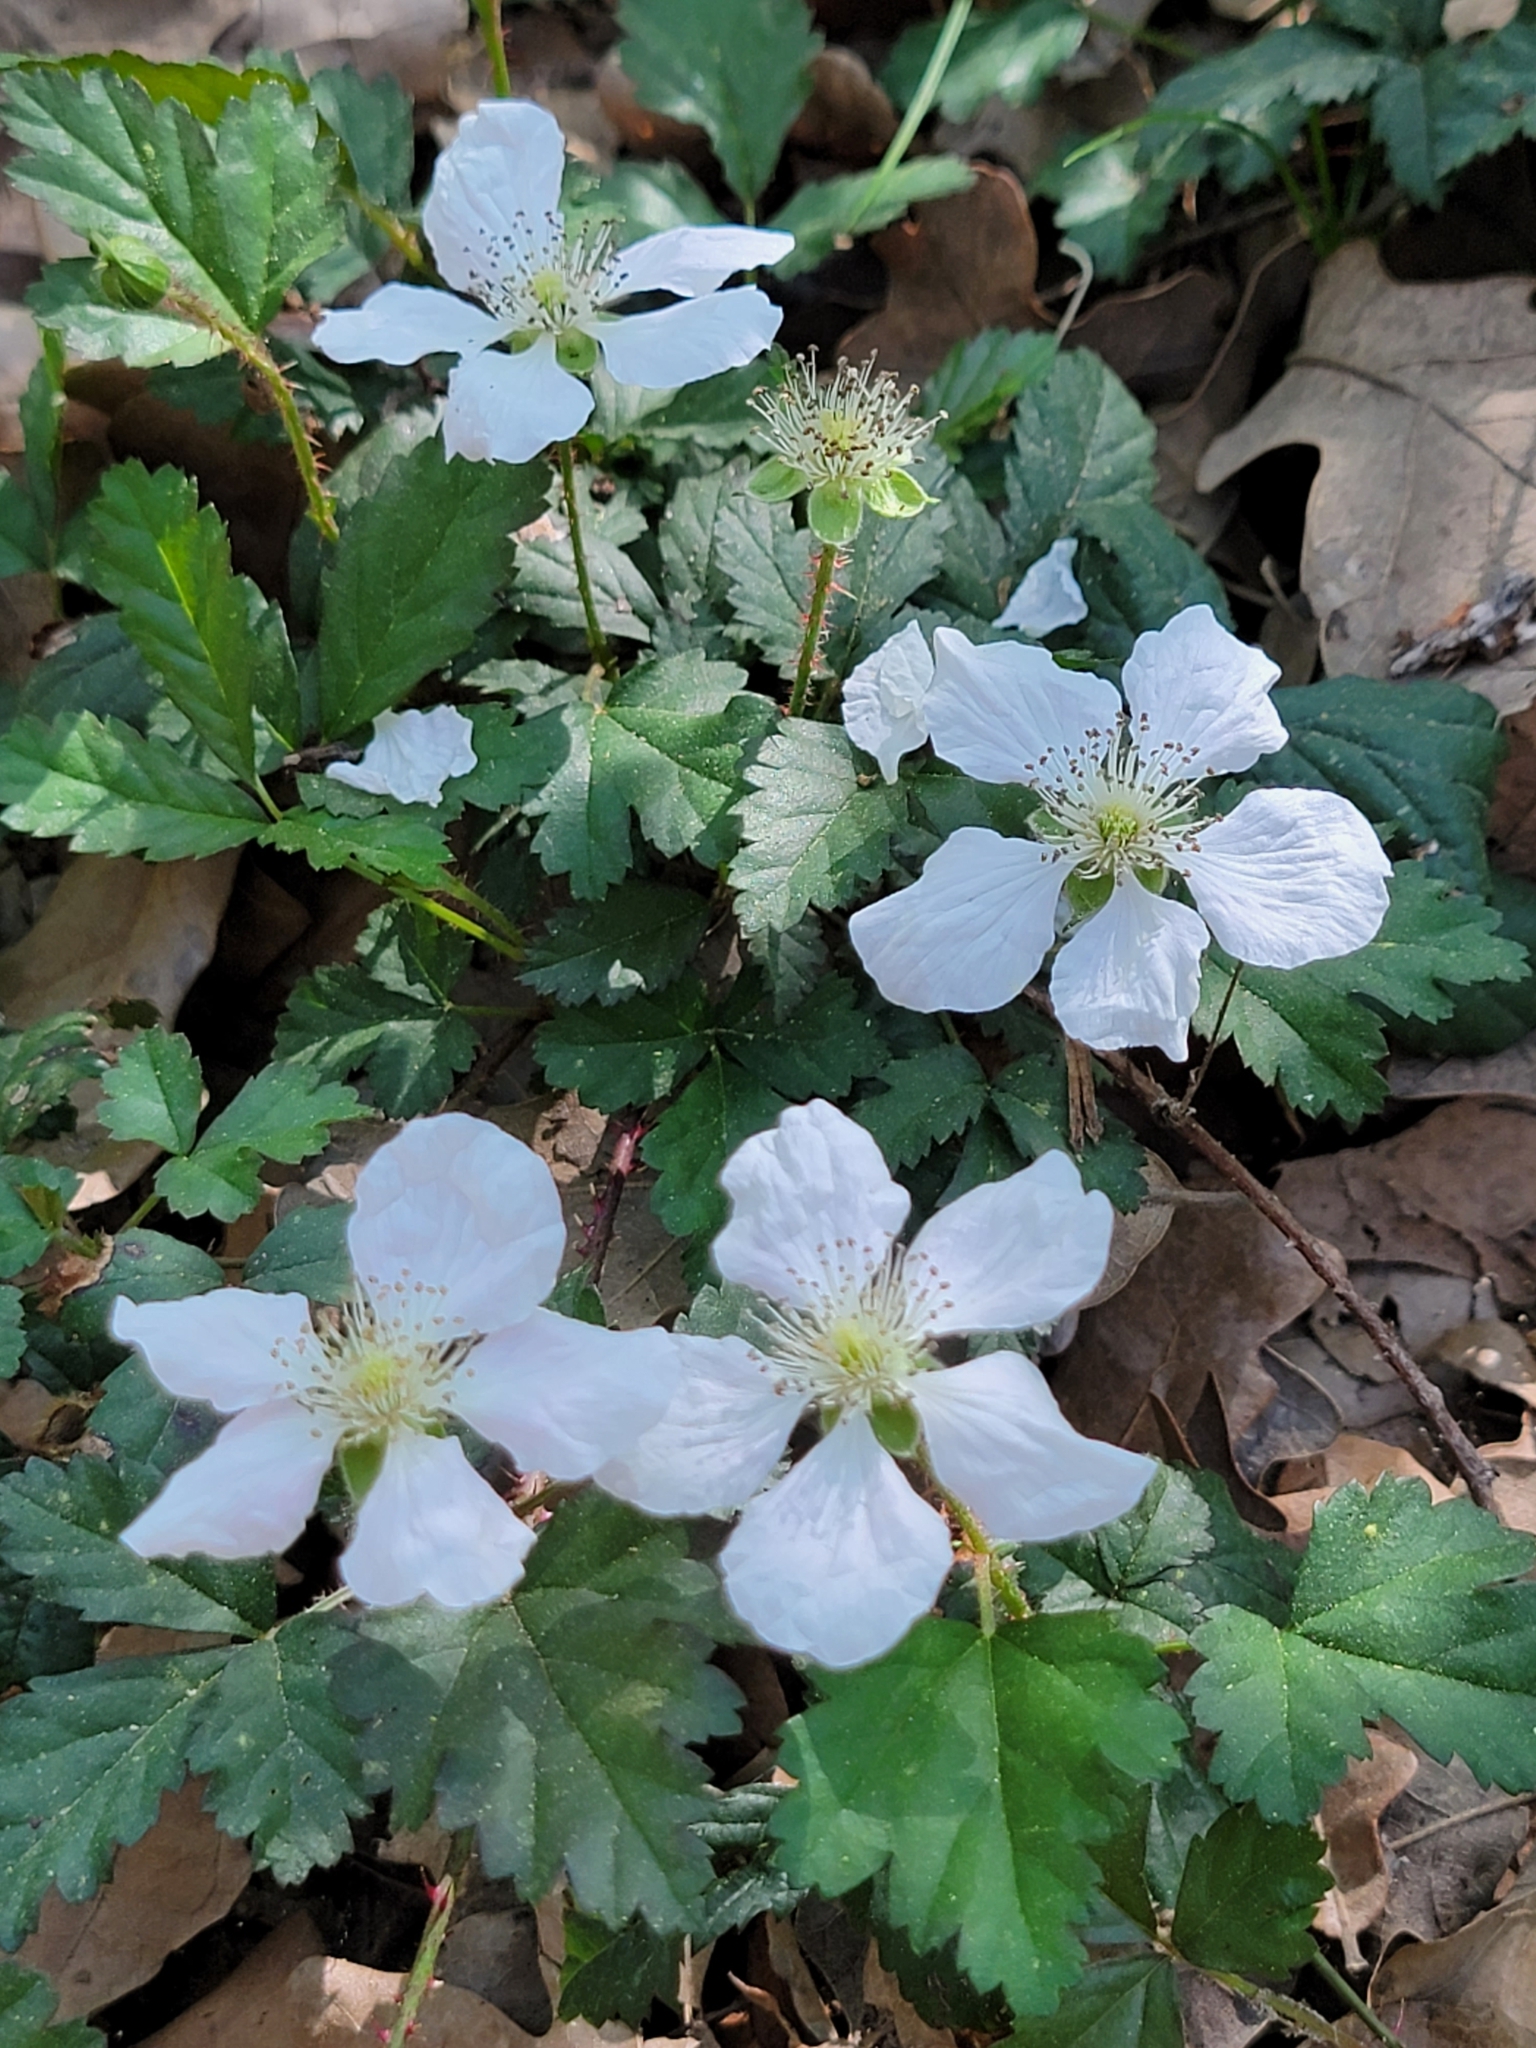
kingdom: Plantae
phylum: Tracheophyta
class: Magnoliopsida
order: Rosales
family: Rosaceae
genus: Rubus
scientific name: Rubus flagellaris
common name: American dewberry
